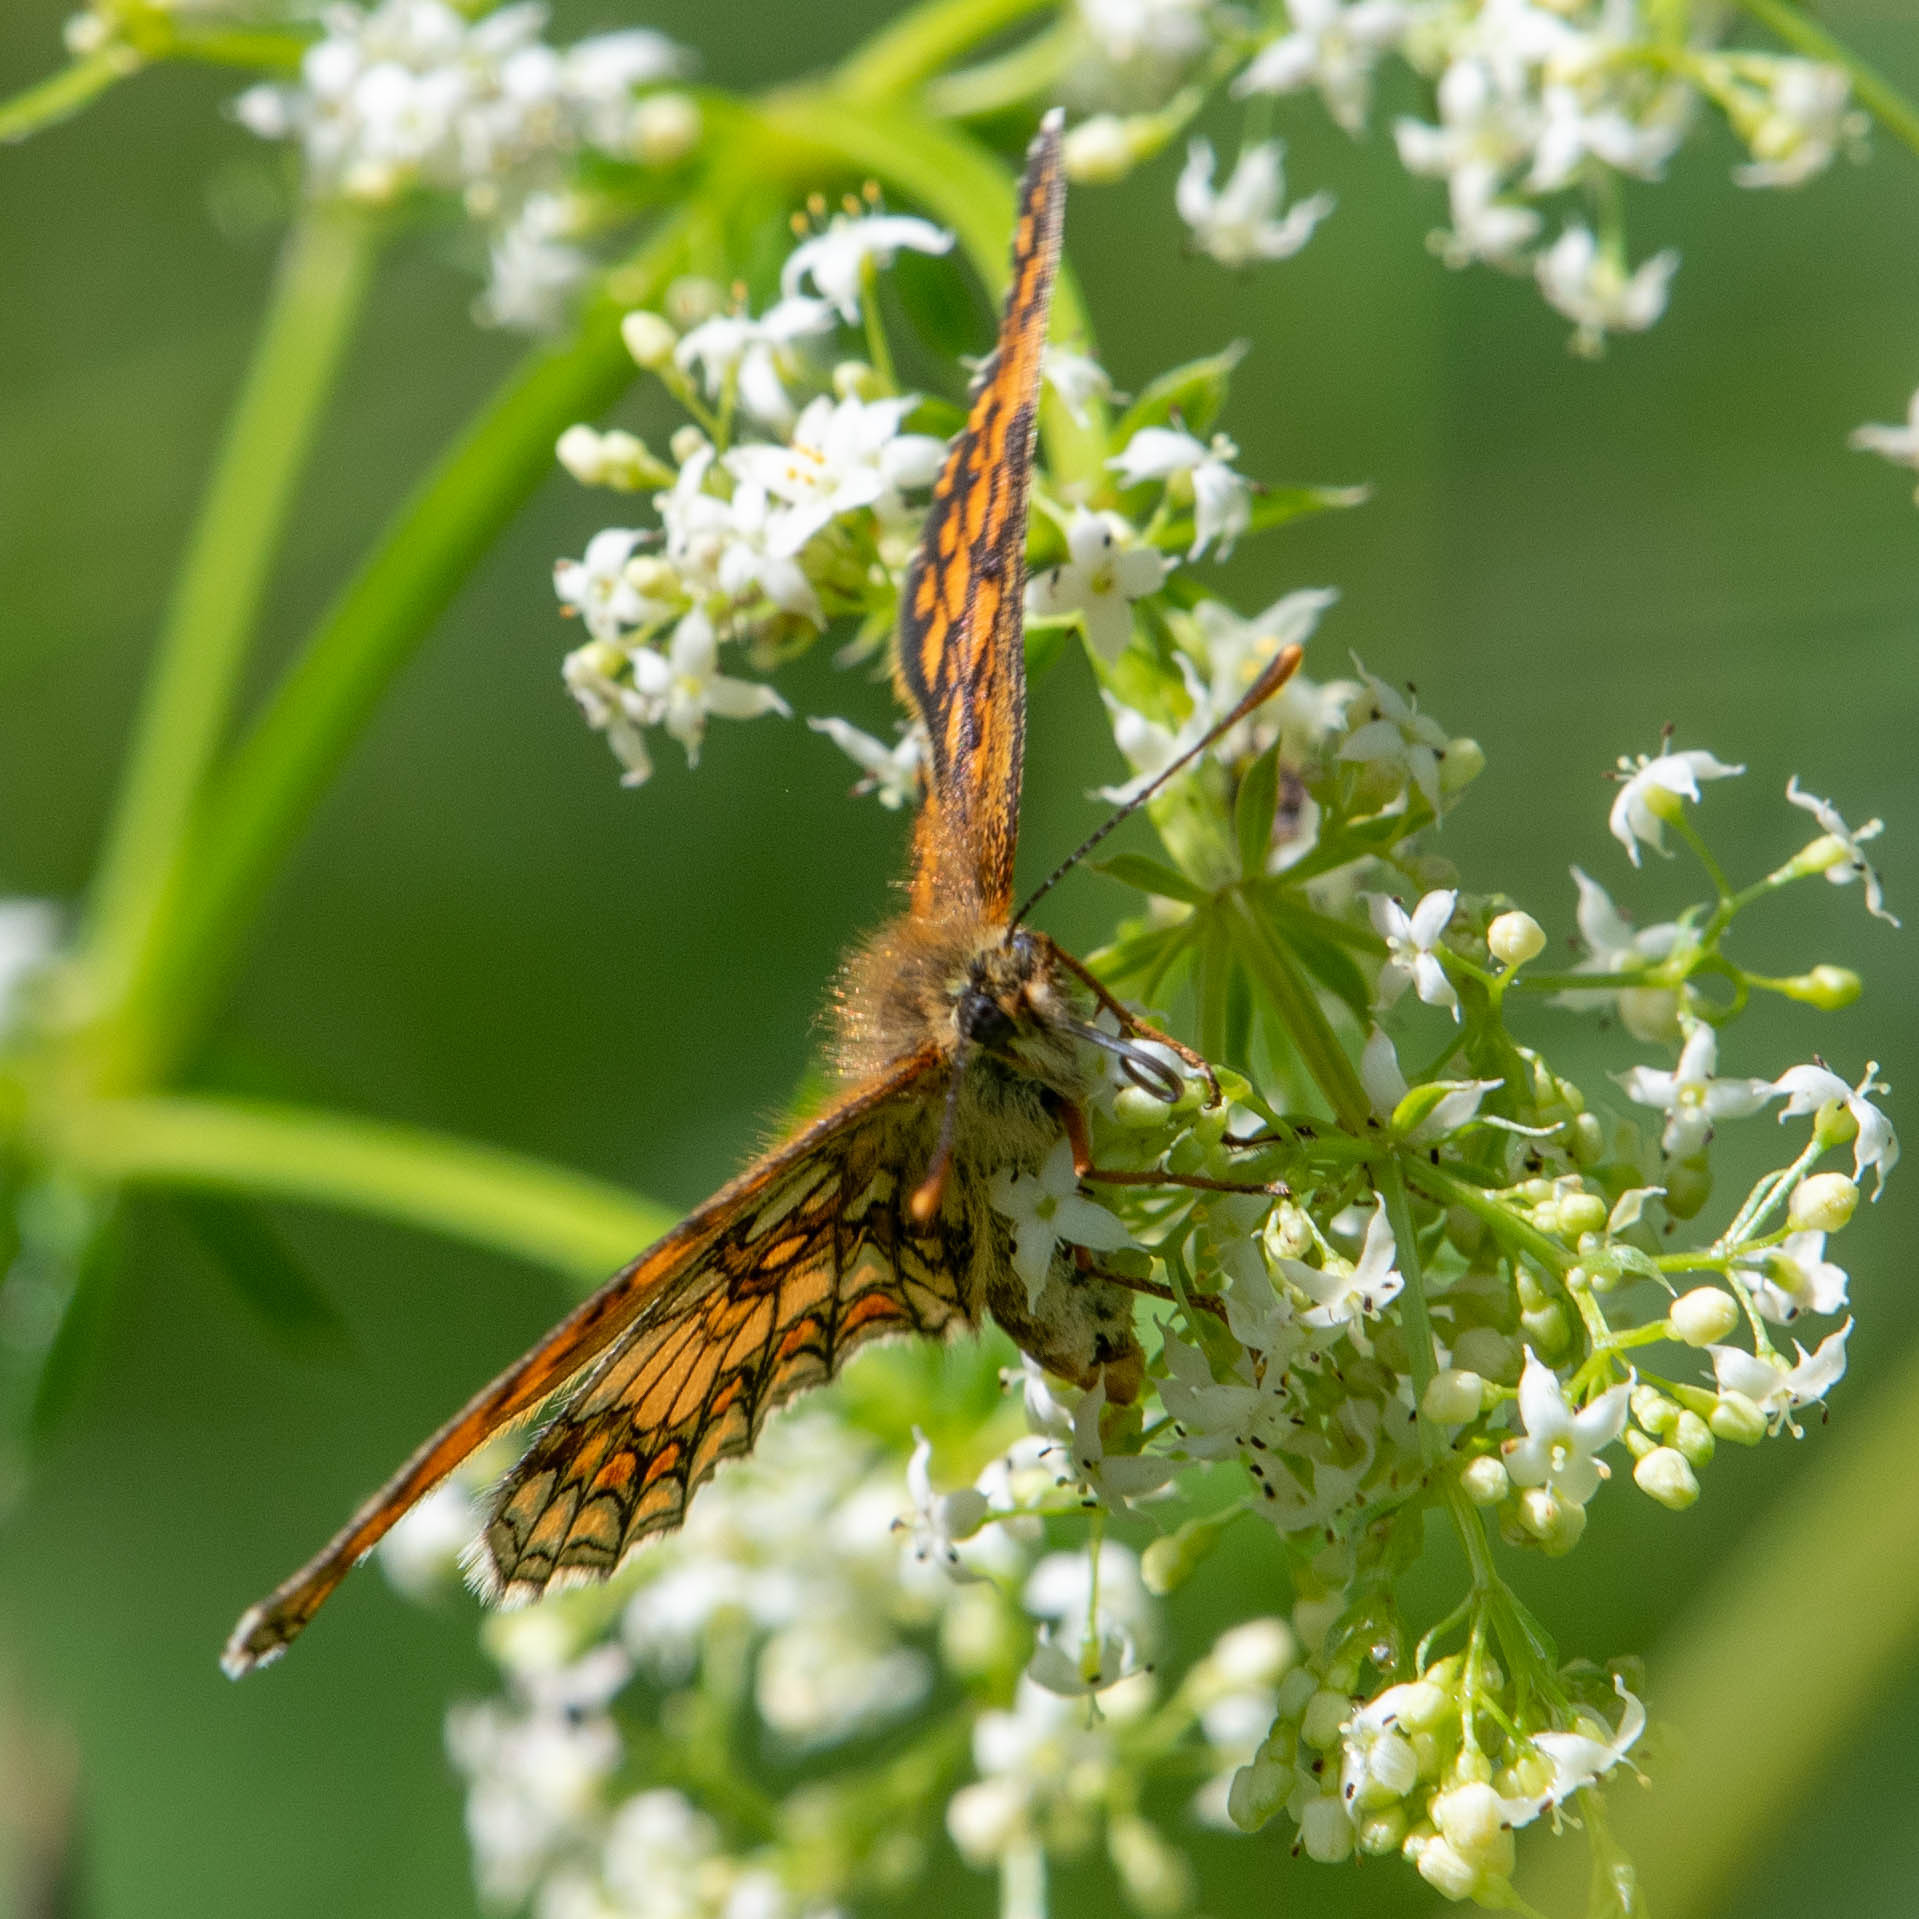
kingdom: Animalia
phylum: Arthropoda
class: Insecta
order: Lepidoptera
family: Nymphalidae
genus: Mellicta
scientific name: Mellicta athalia
